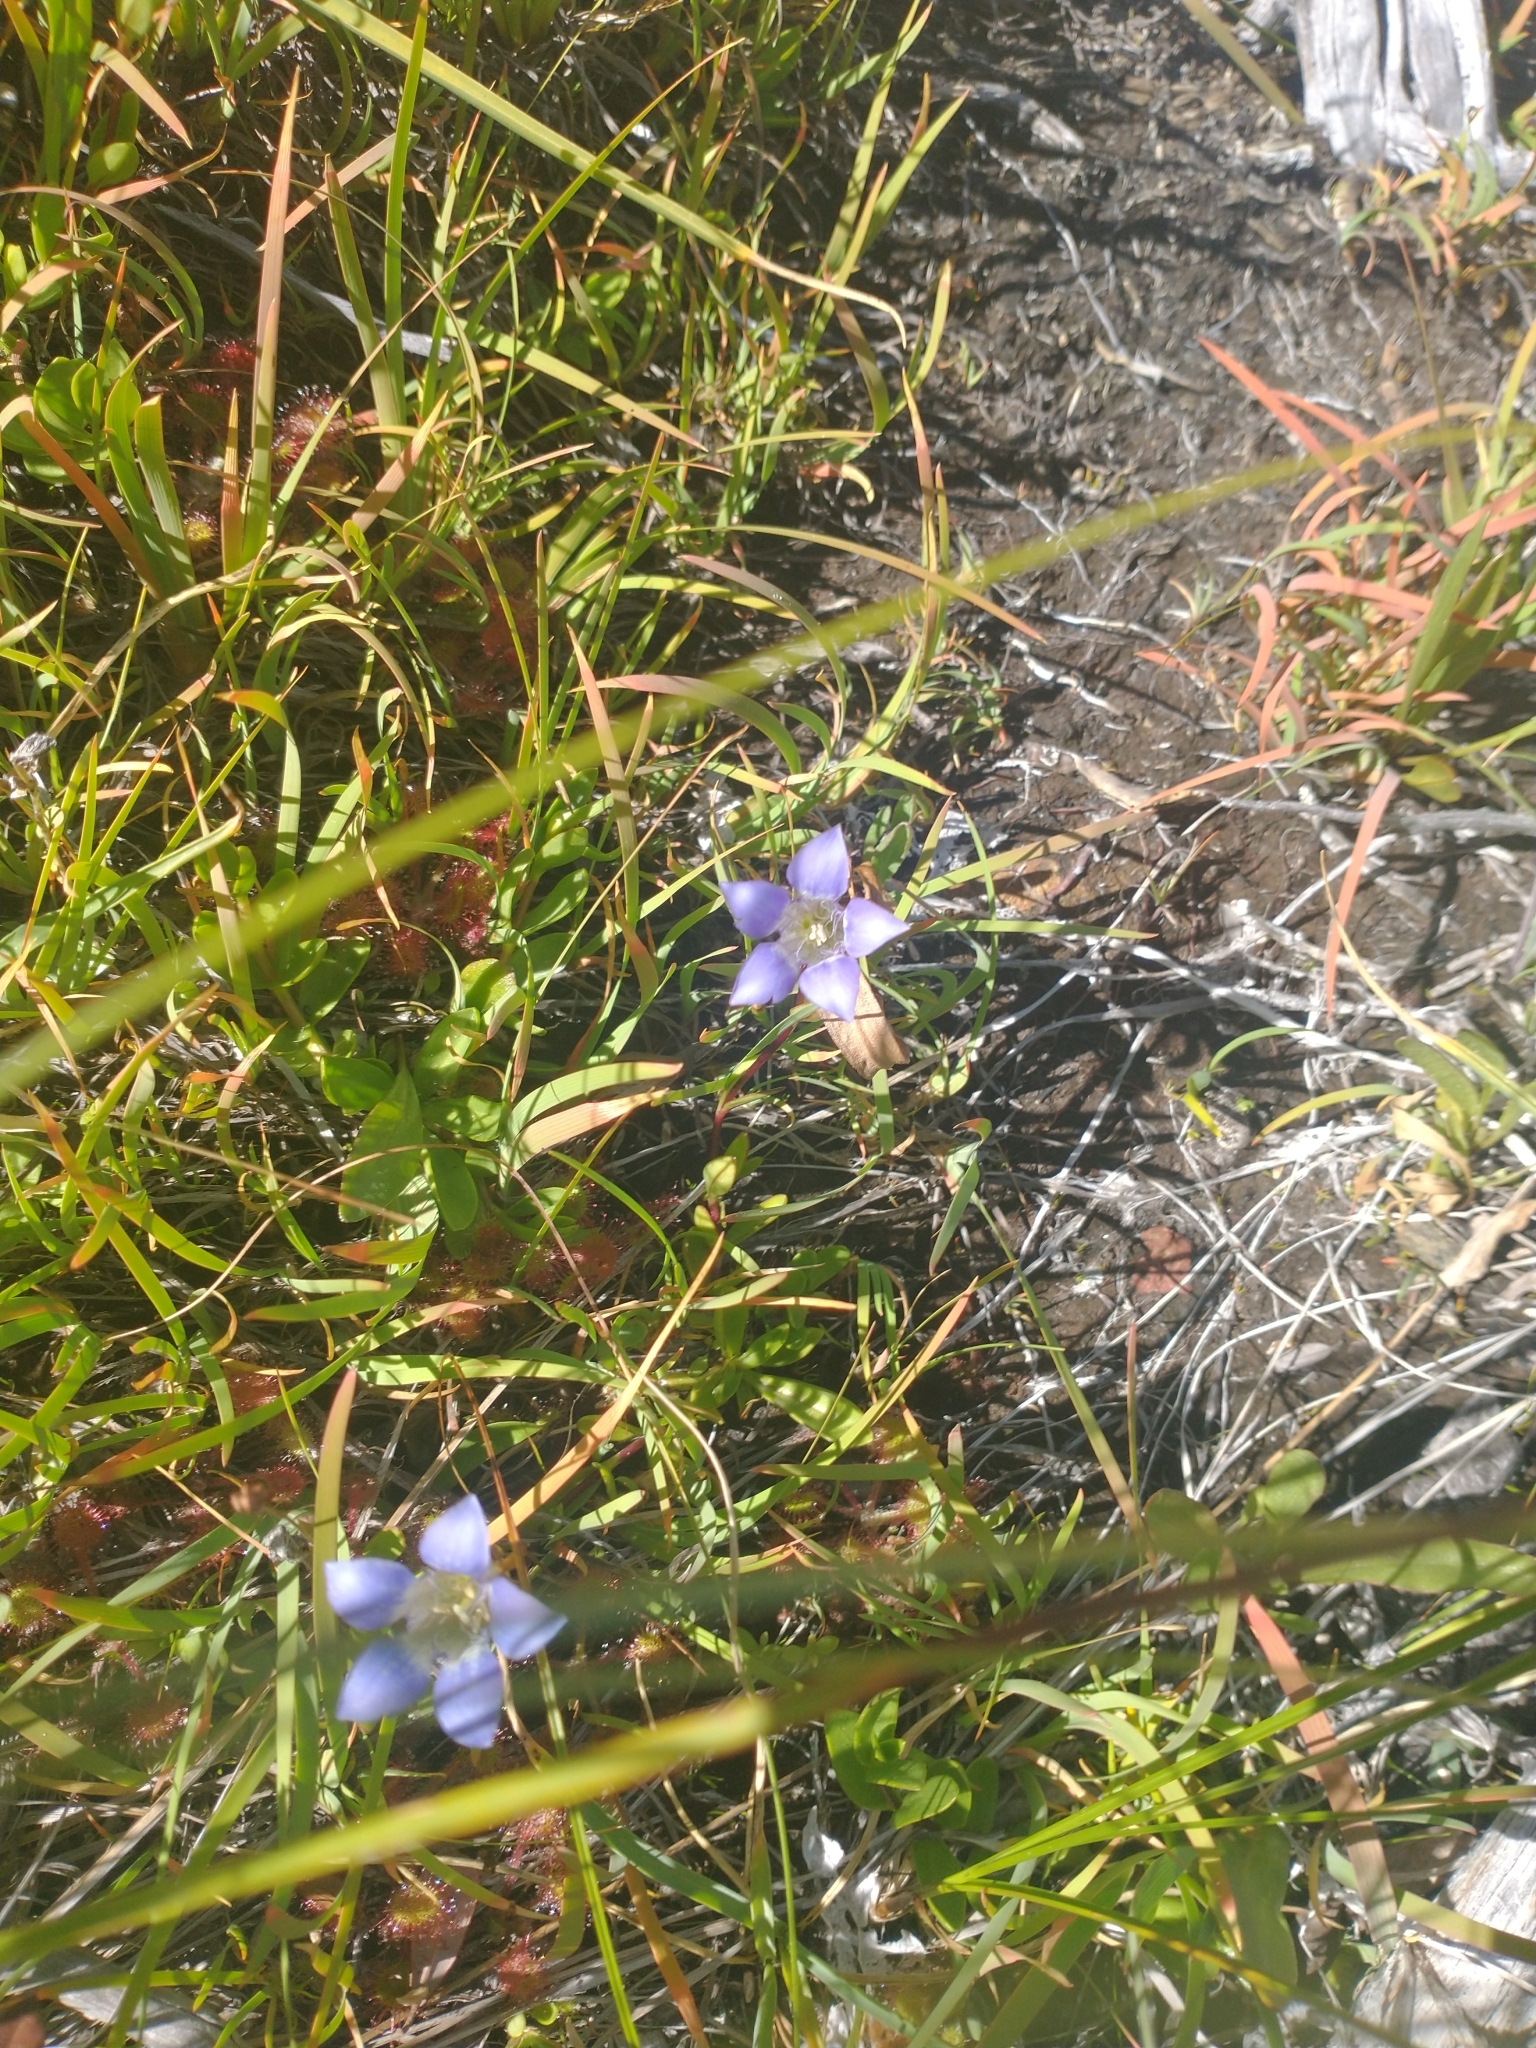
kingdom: Plantae
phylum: Tracheophyta
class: Magnoliopsida
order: Gentianales
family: Gentianaceae
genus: Gentiana
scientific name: Gentiana setigera
